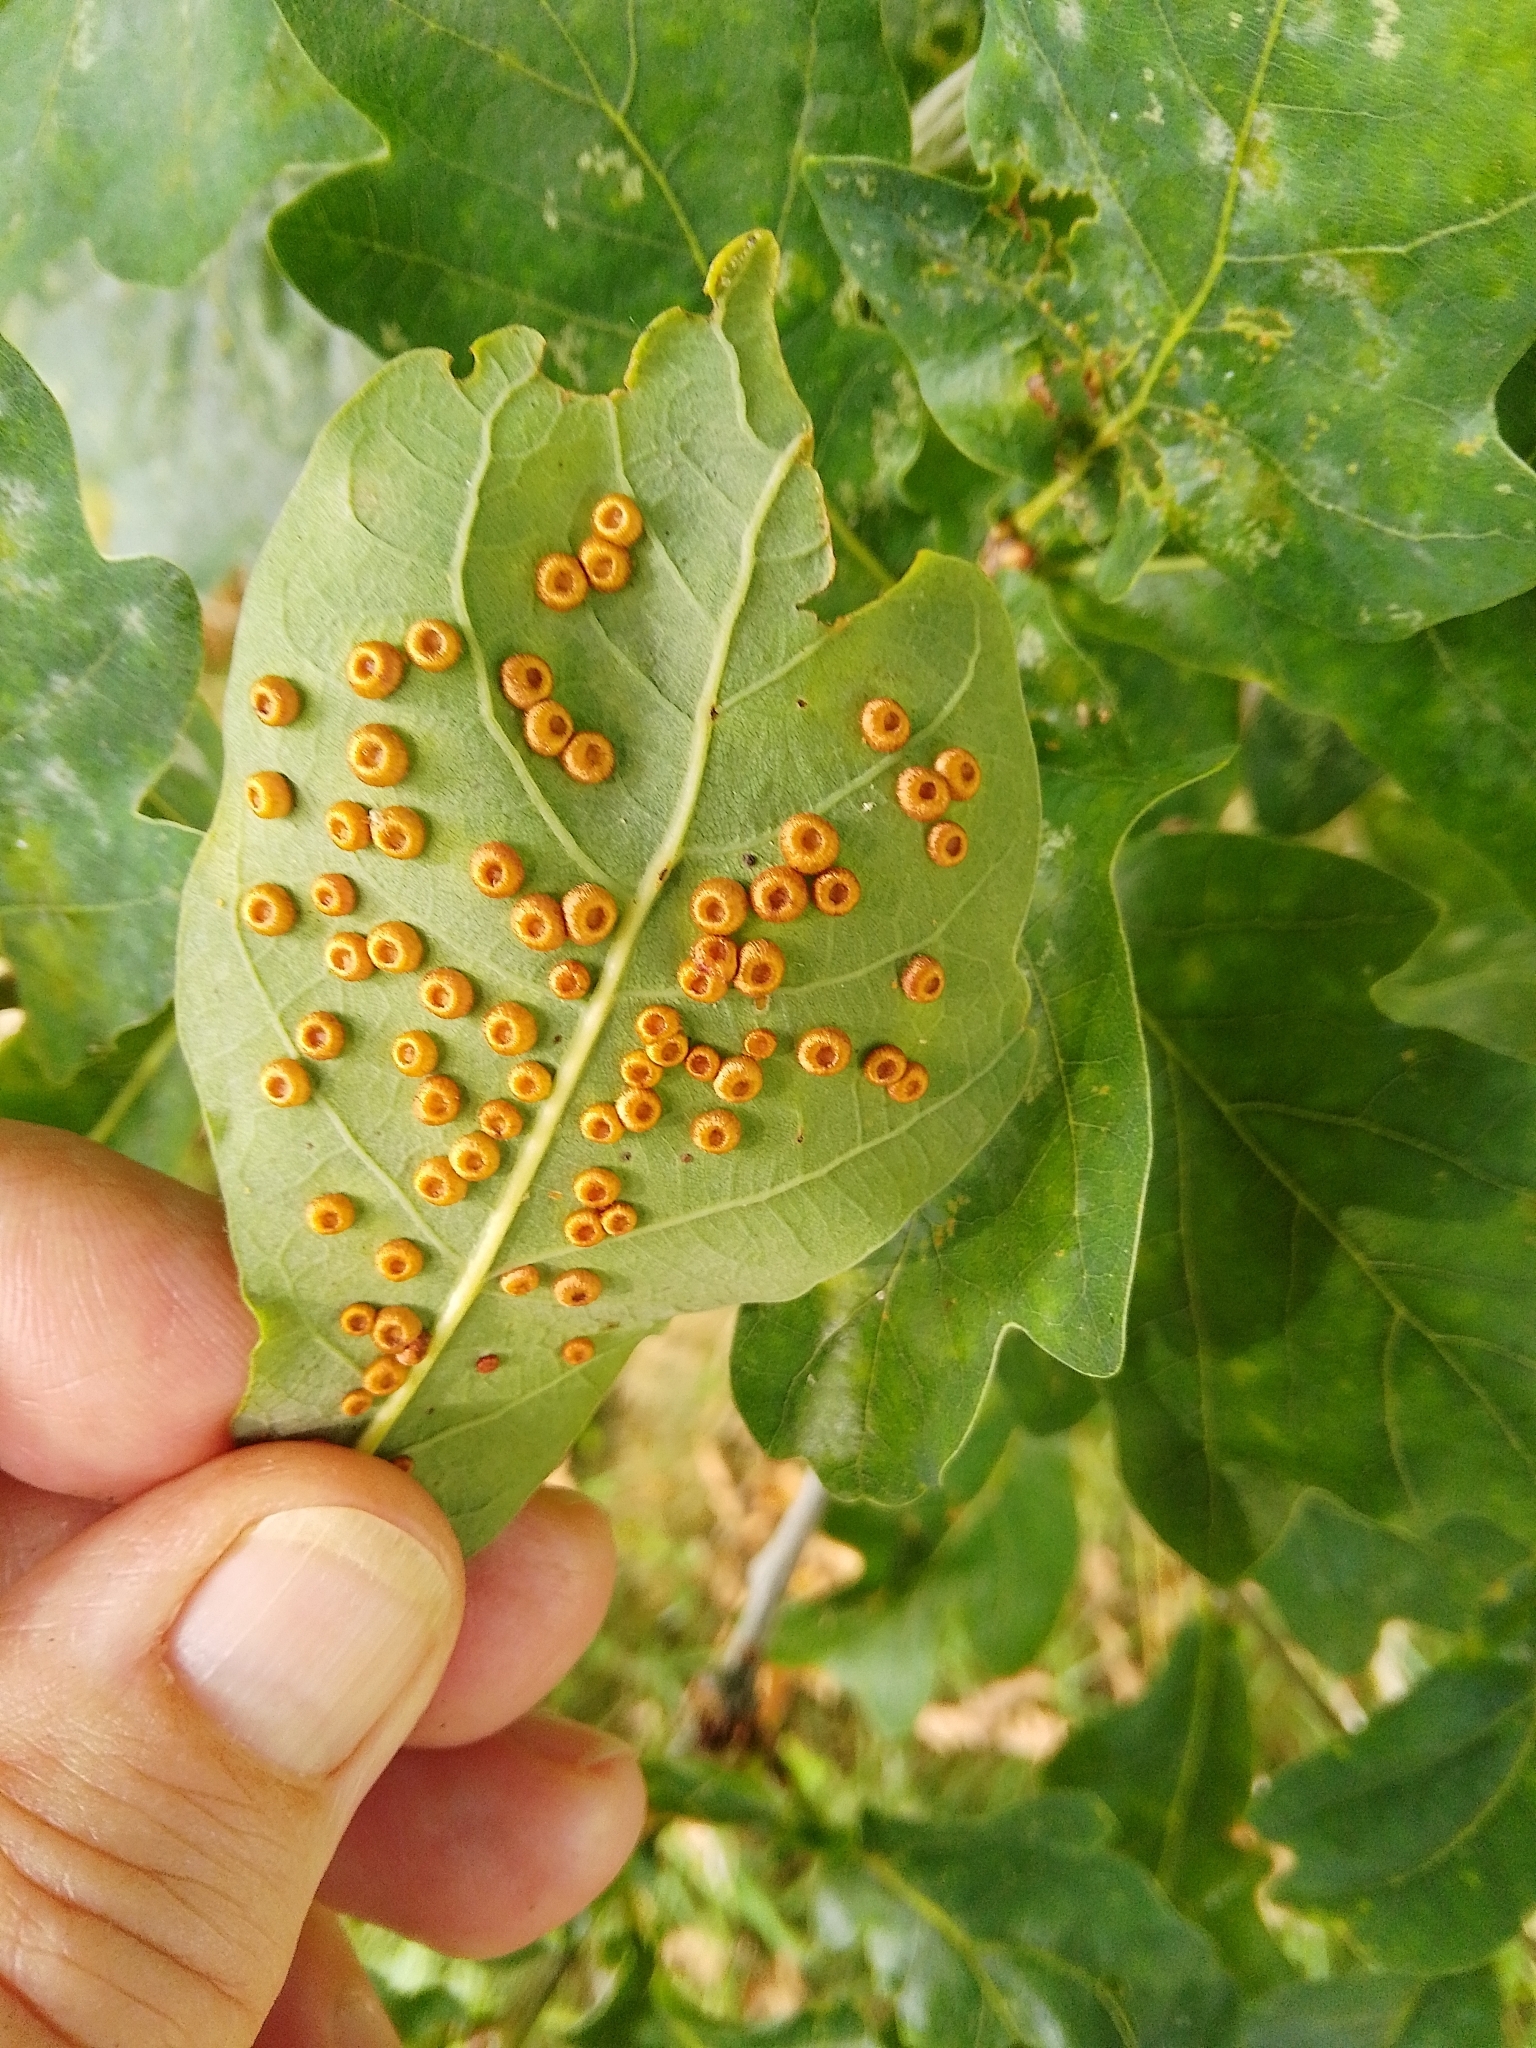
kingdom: Animalia
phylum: Arthropoda
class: Insecta
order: Hymenoptera
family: Cynipidae
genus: Neuroterus
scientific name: Neuroterus numismalis
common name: Silk-button spangle gall
